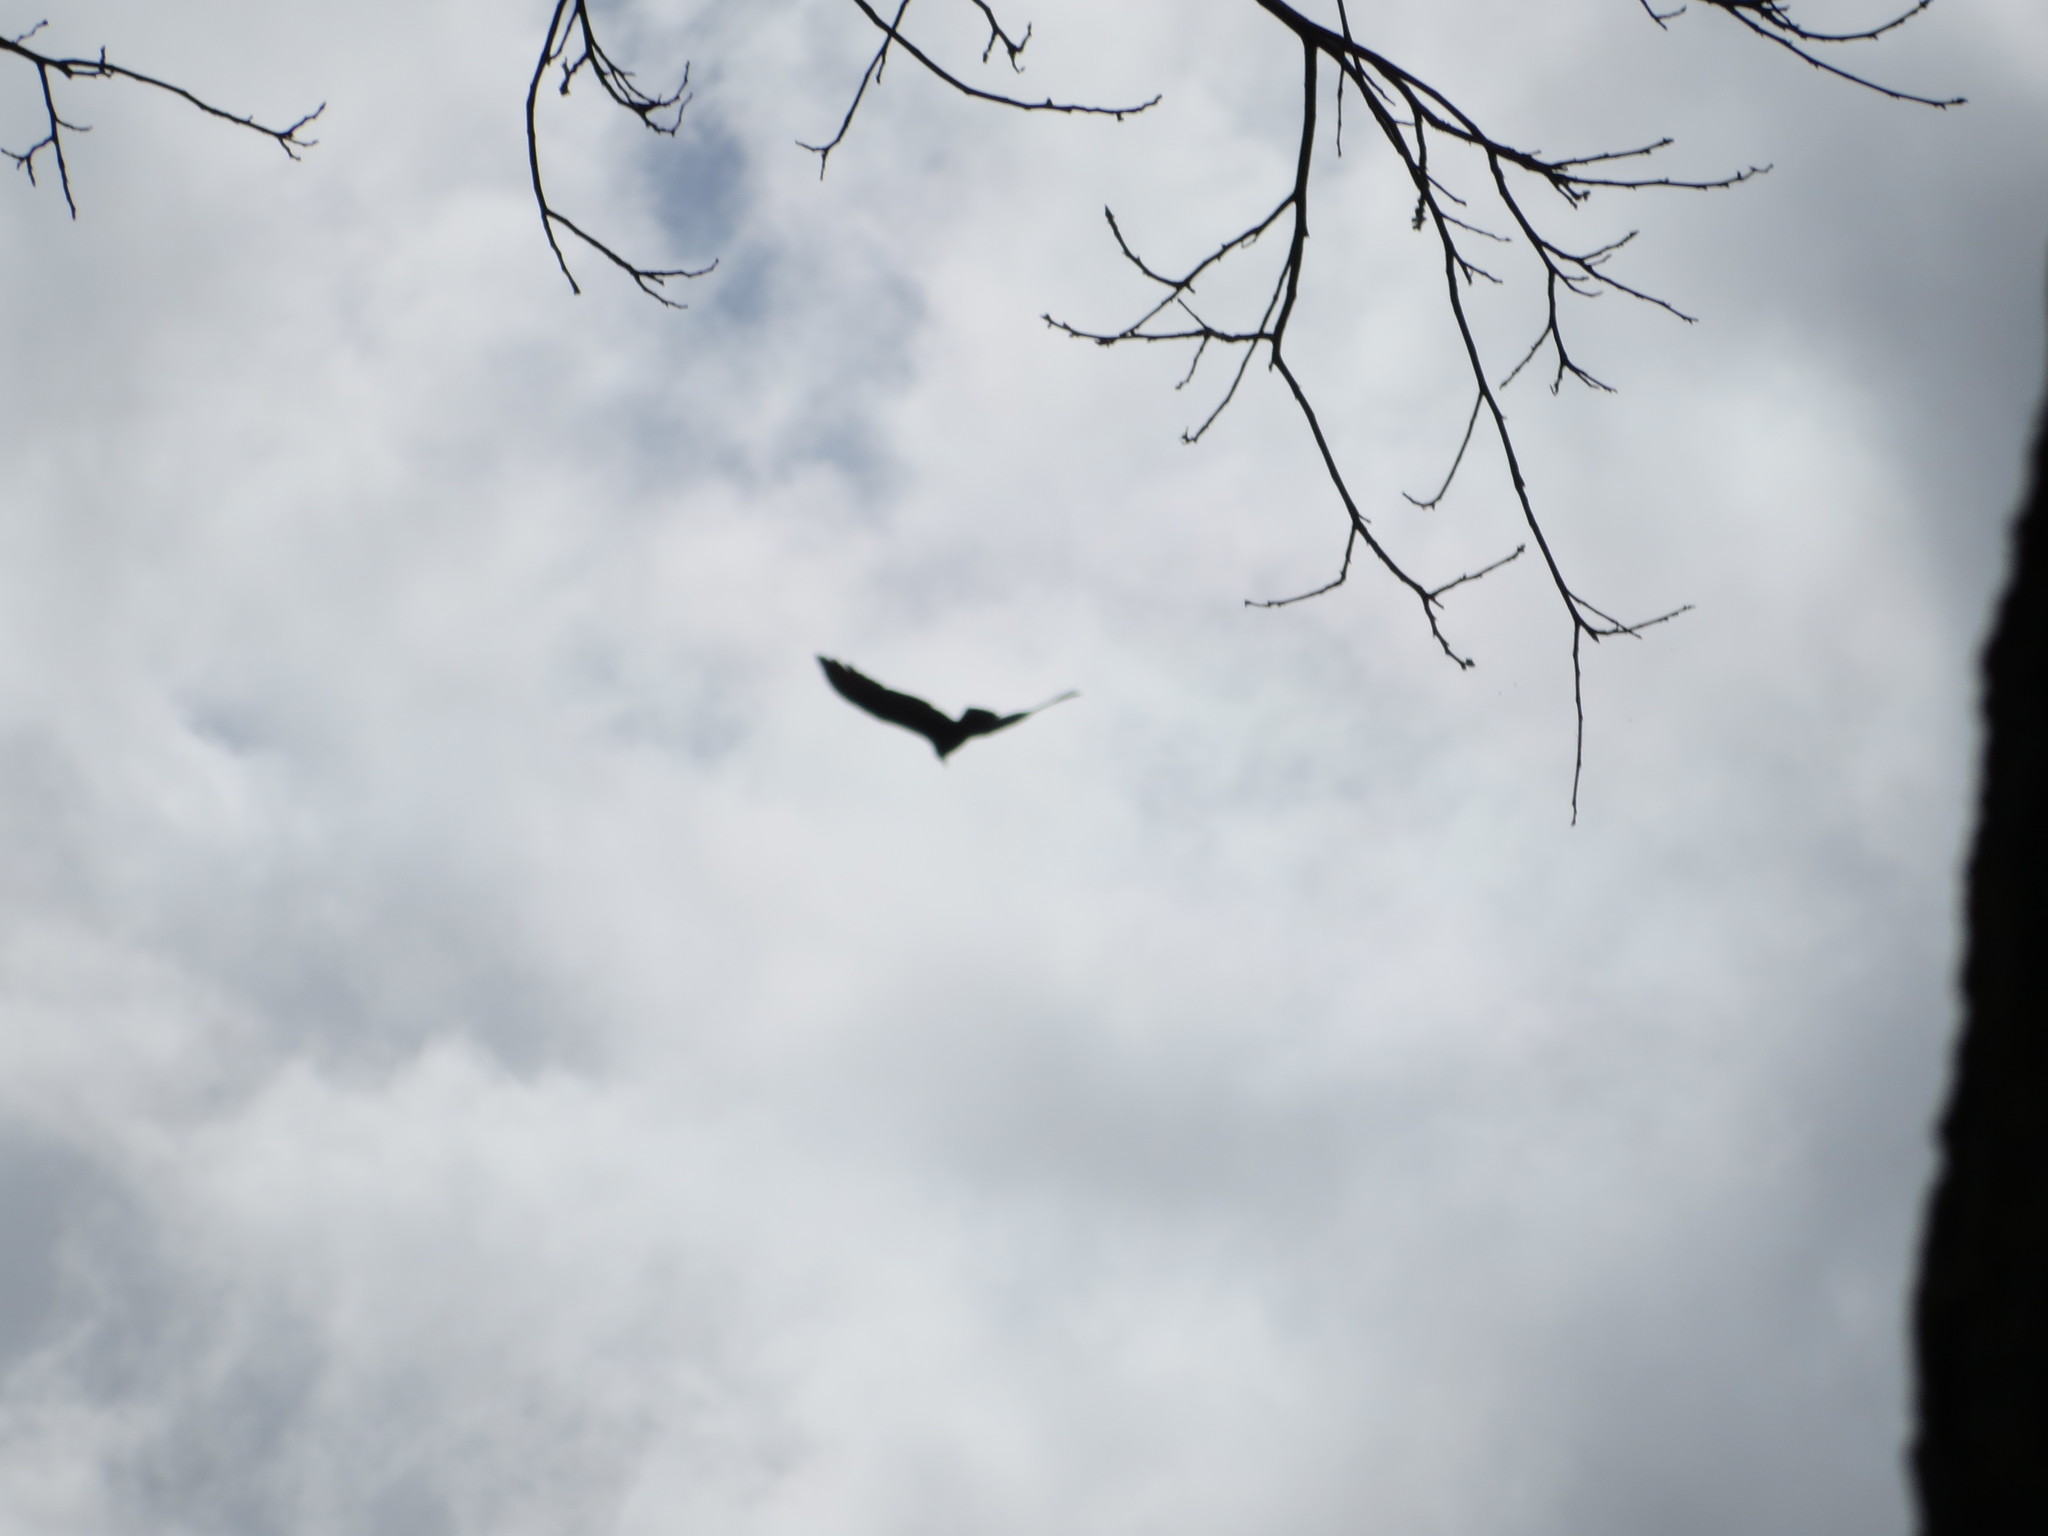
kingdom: Animalia
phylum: Chordata
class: Aves
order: Accipitriformes
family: Cathartidae
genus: Cathartes
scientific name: Cathartes aura
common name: Turkey vulture
